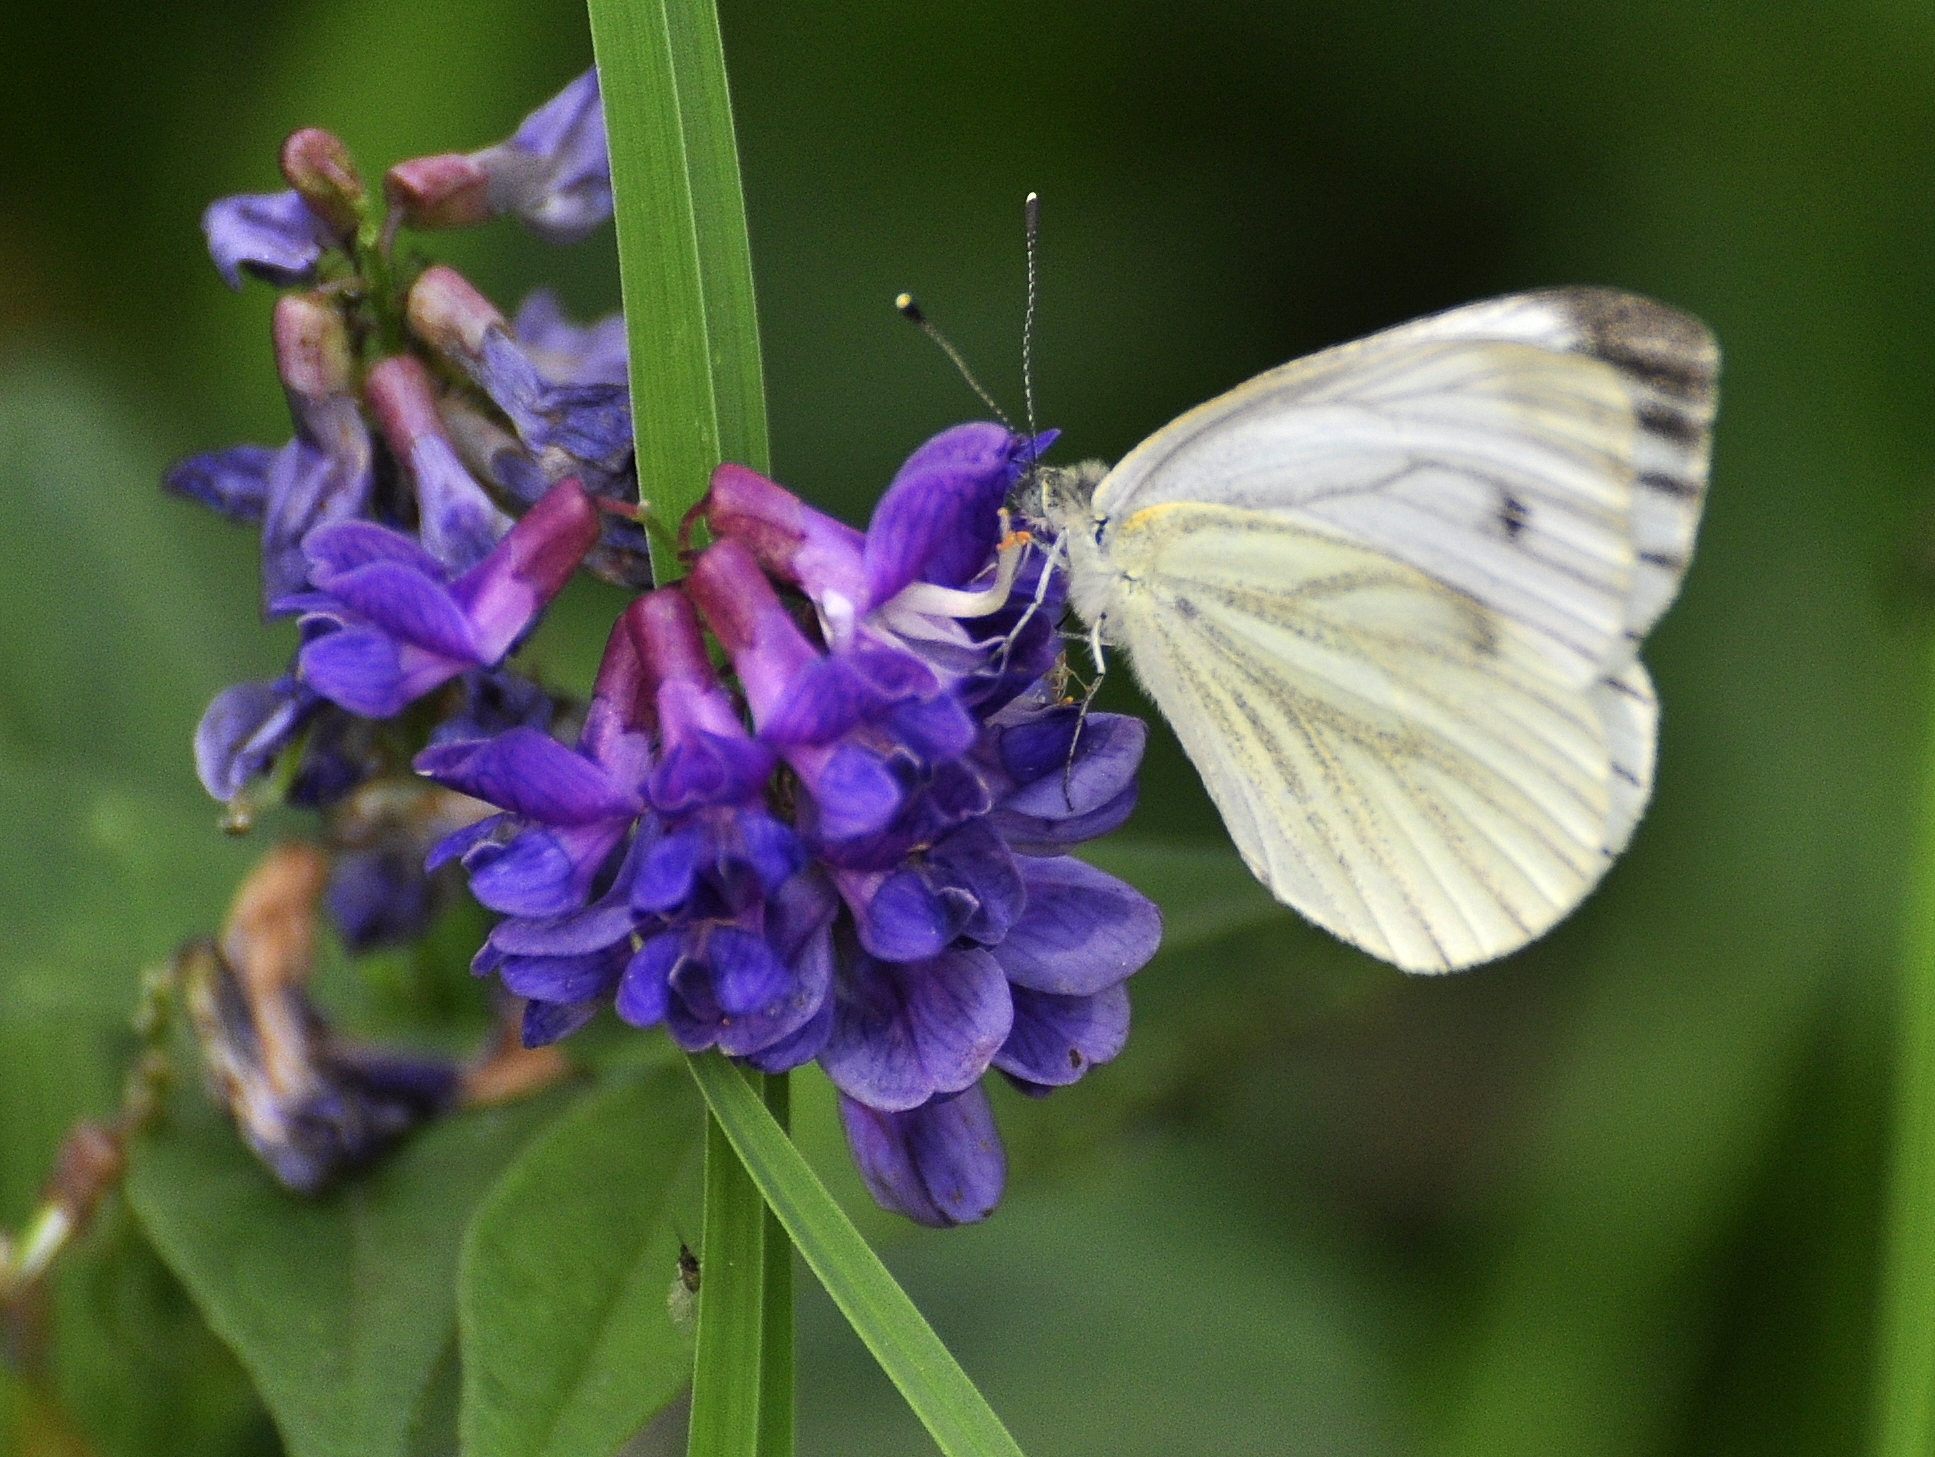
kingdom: Animalia
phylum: Arthropoda
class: Insecta
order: Lepidoptera
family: Pieridae
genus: Pieris
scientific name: Pieris napi
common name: Green-veined white
